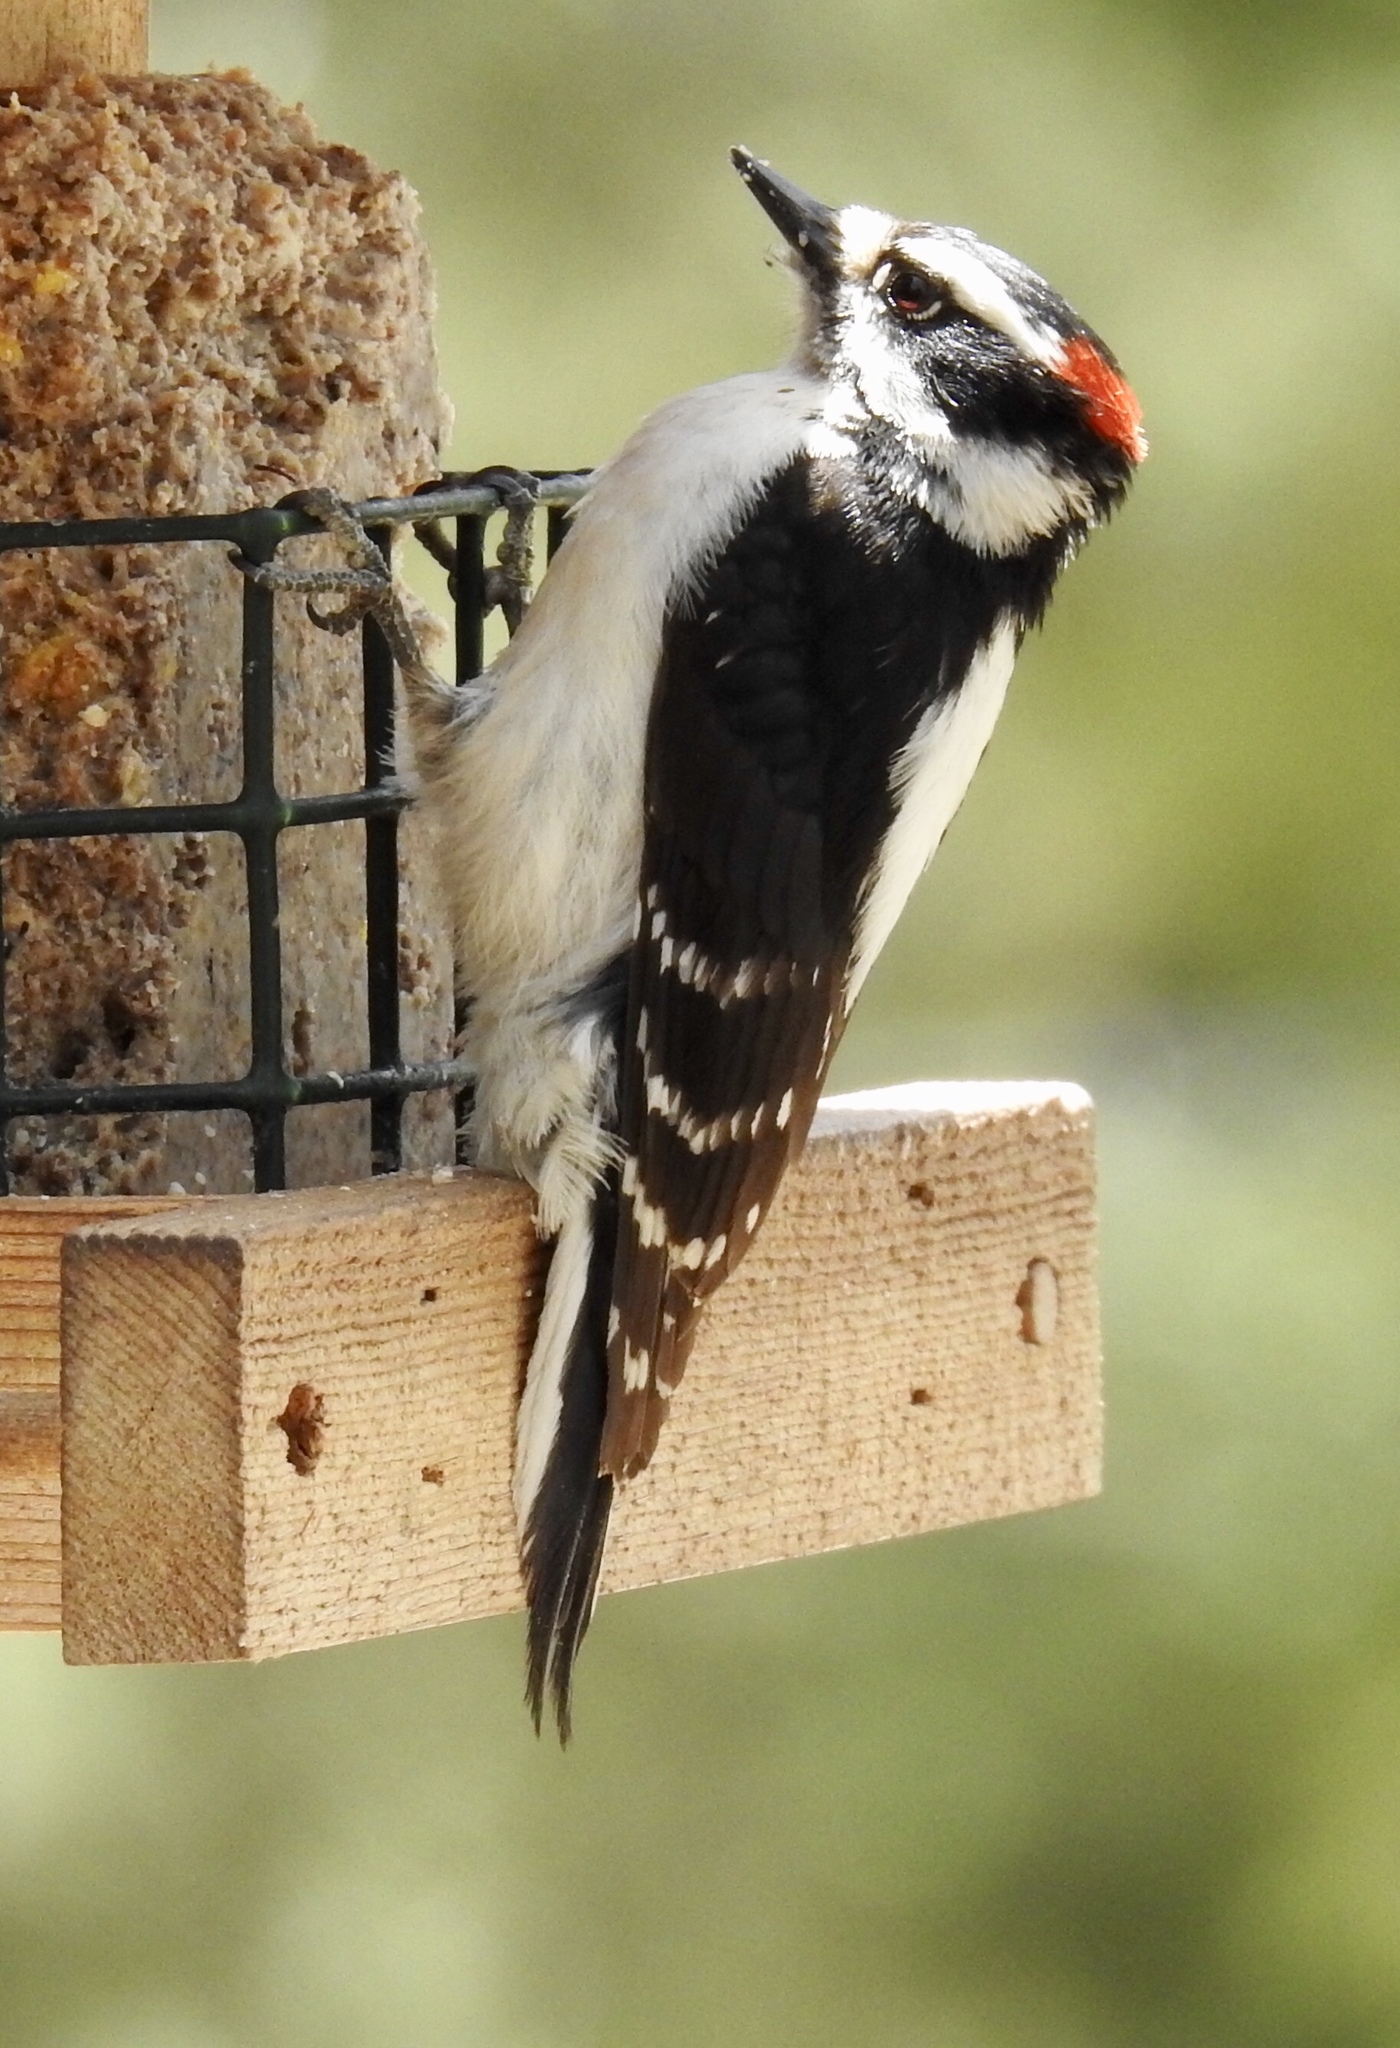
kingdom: Animalia
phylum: Chordata
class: Aves
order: Piciformes
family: Picidae
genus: Dryobates
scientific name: Dryobates pubescens
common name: Downy woodpecker
